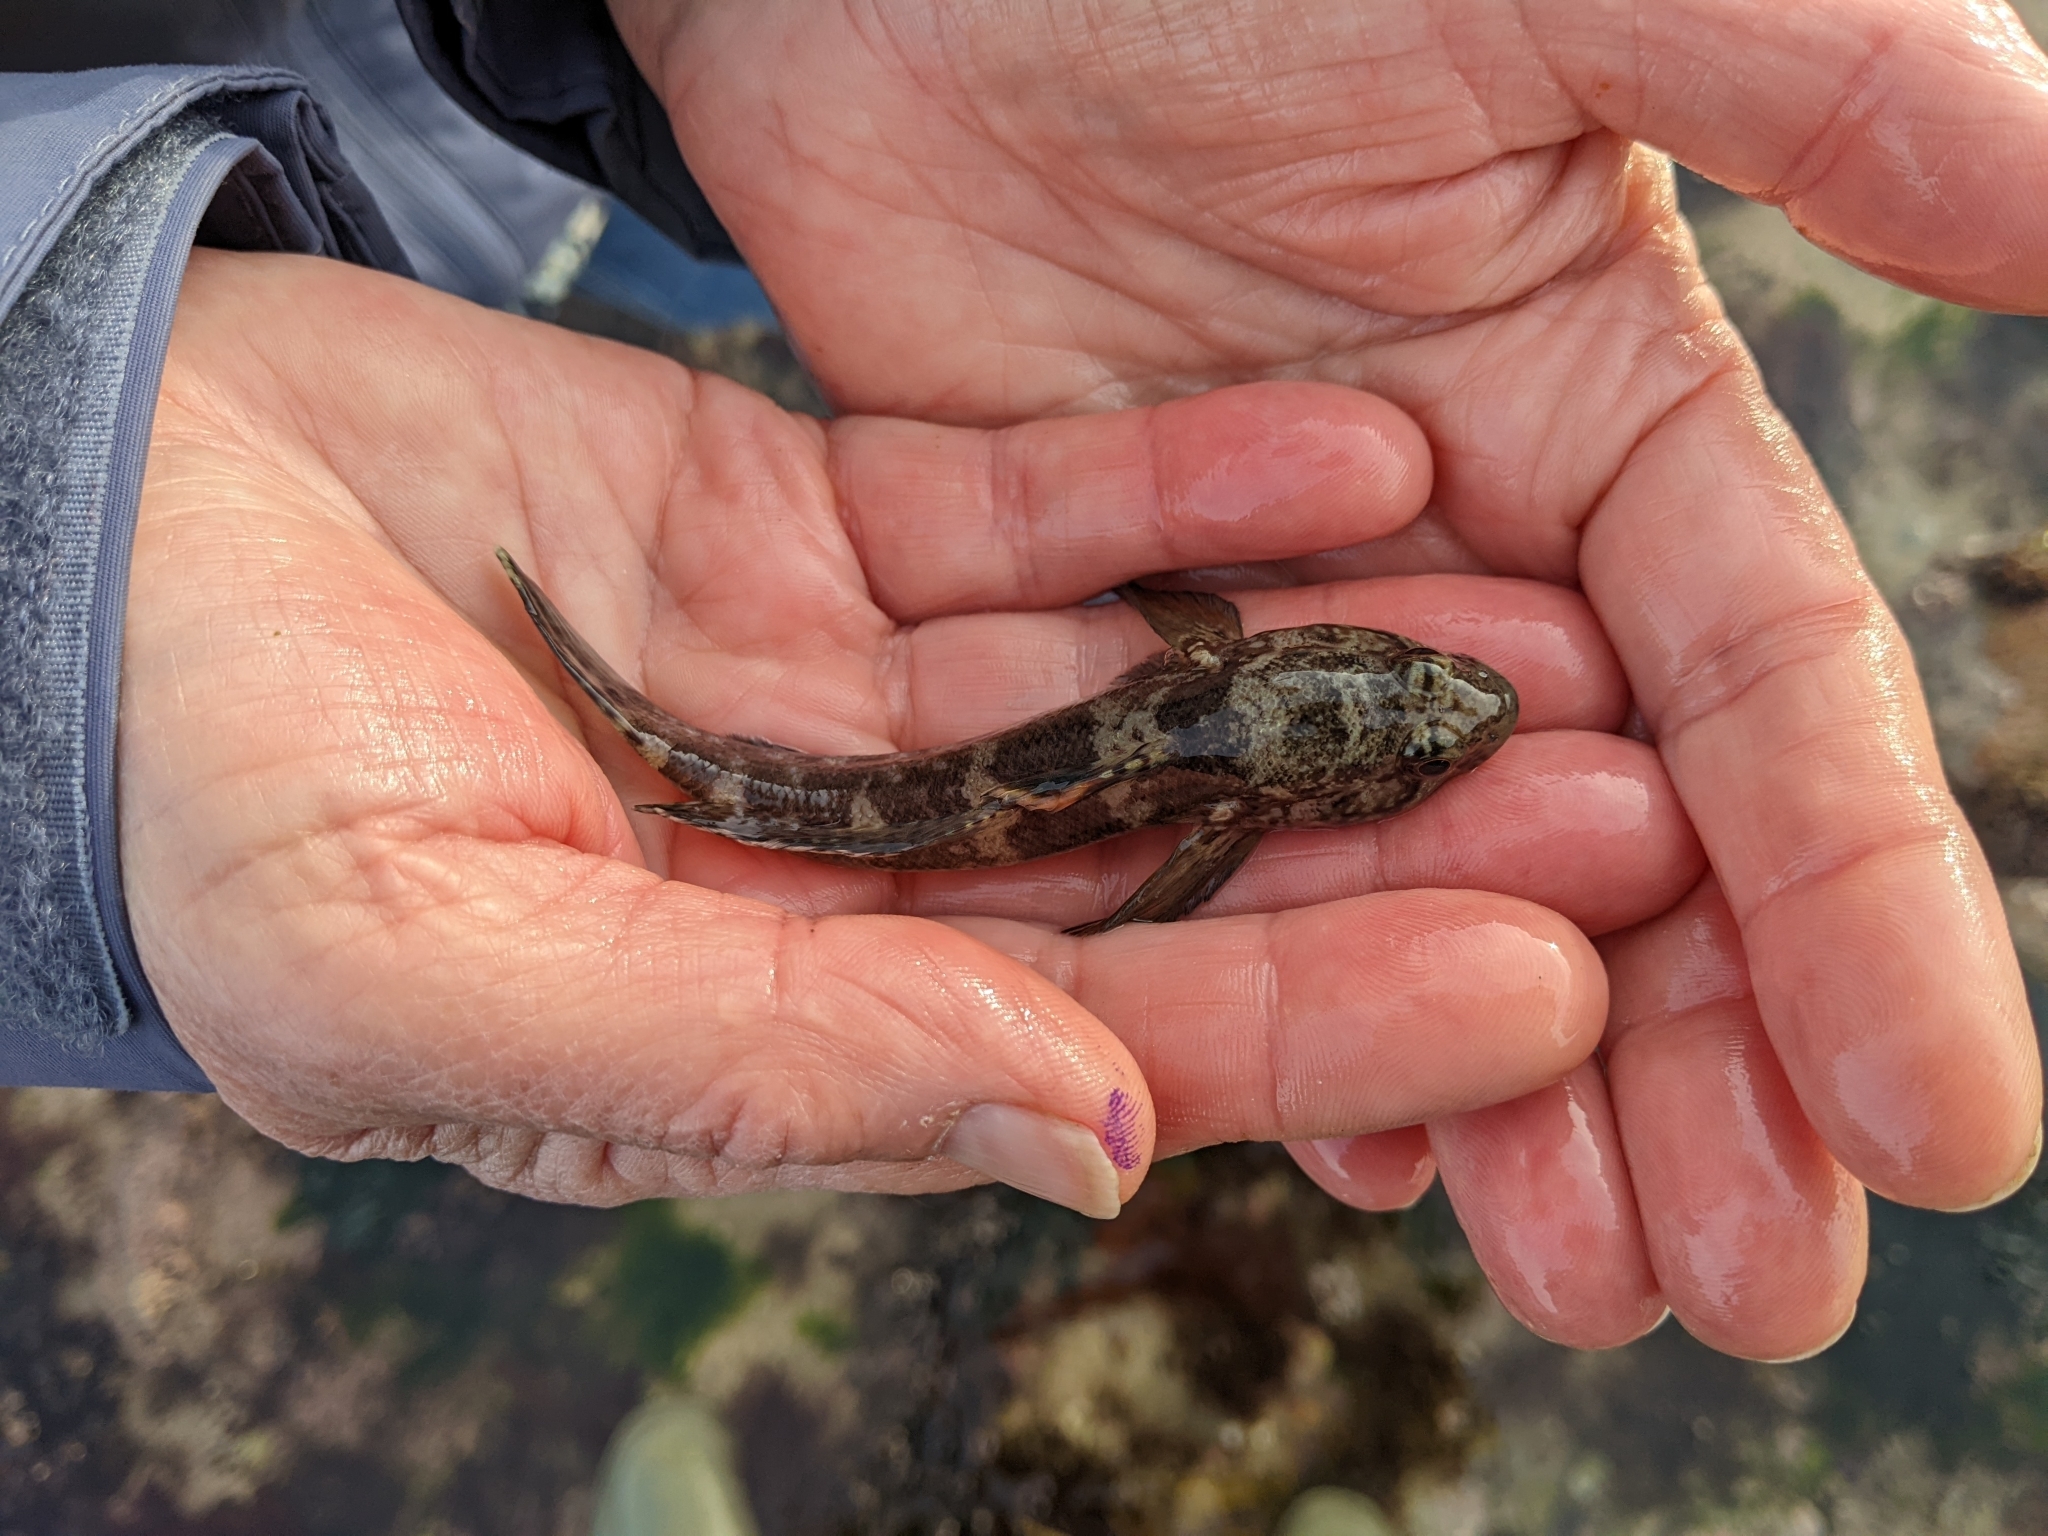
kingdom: Animalia
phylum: Chordata
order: Perciformes
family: Gobiidae
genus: Gobius
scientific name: Gobius paganellus
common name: Rock goby
